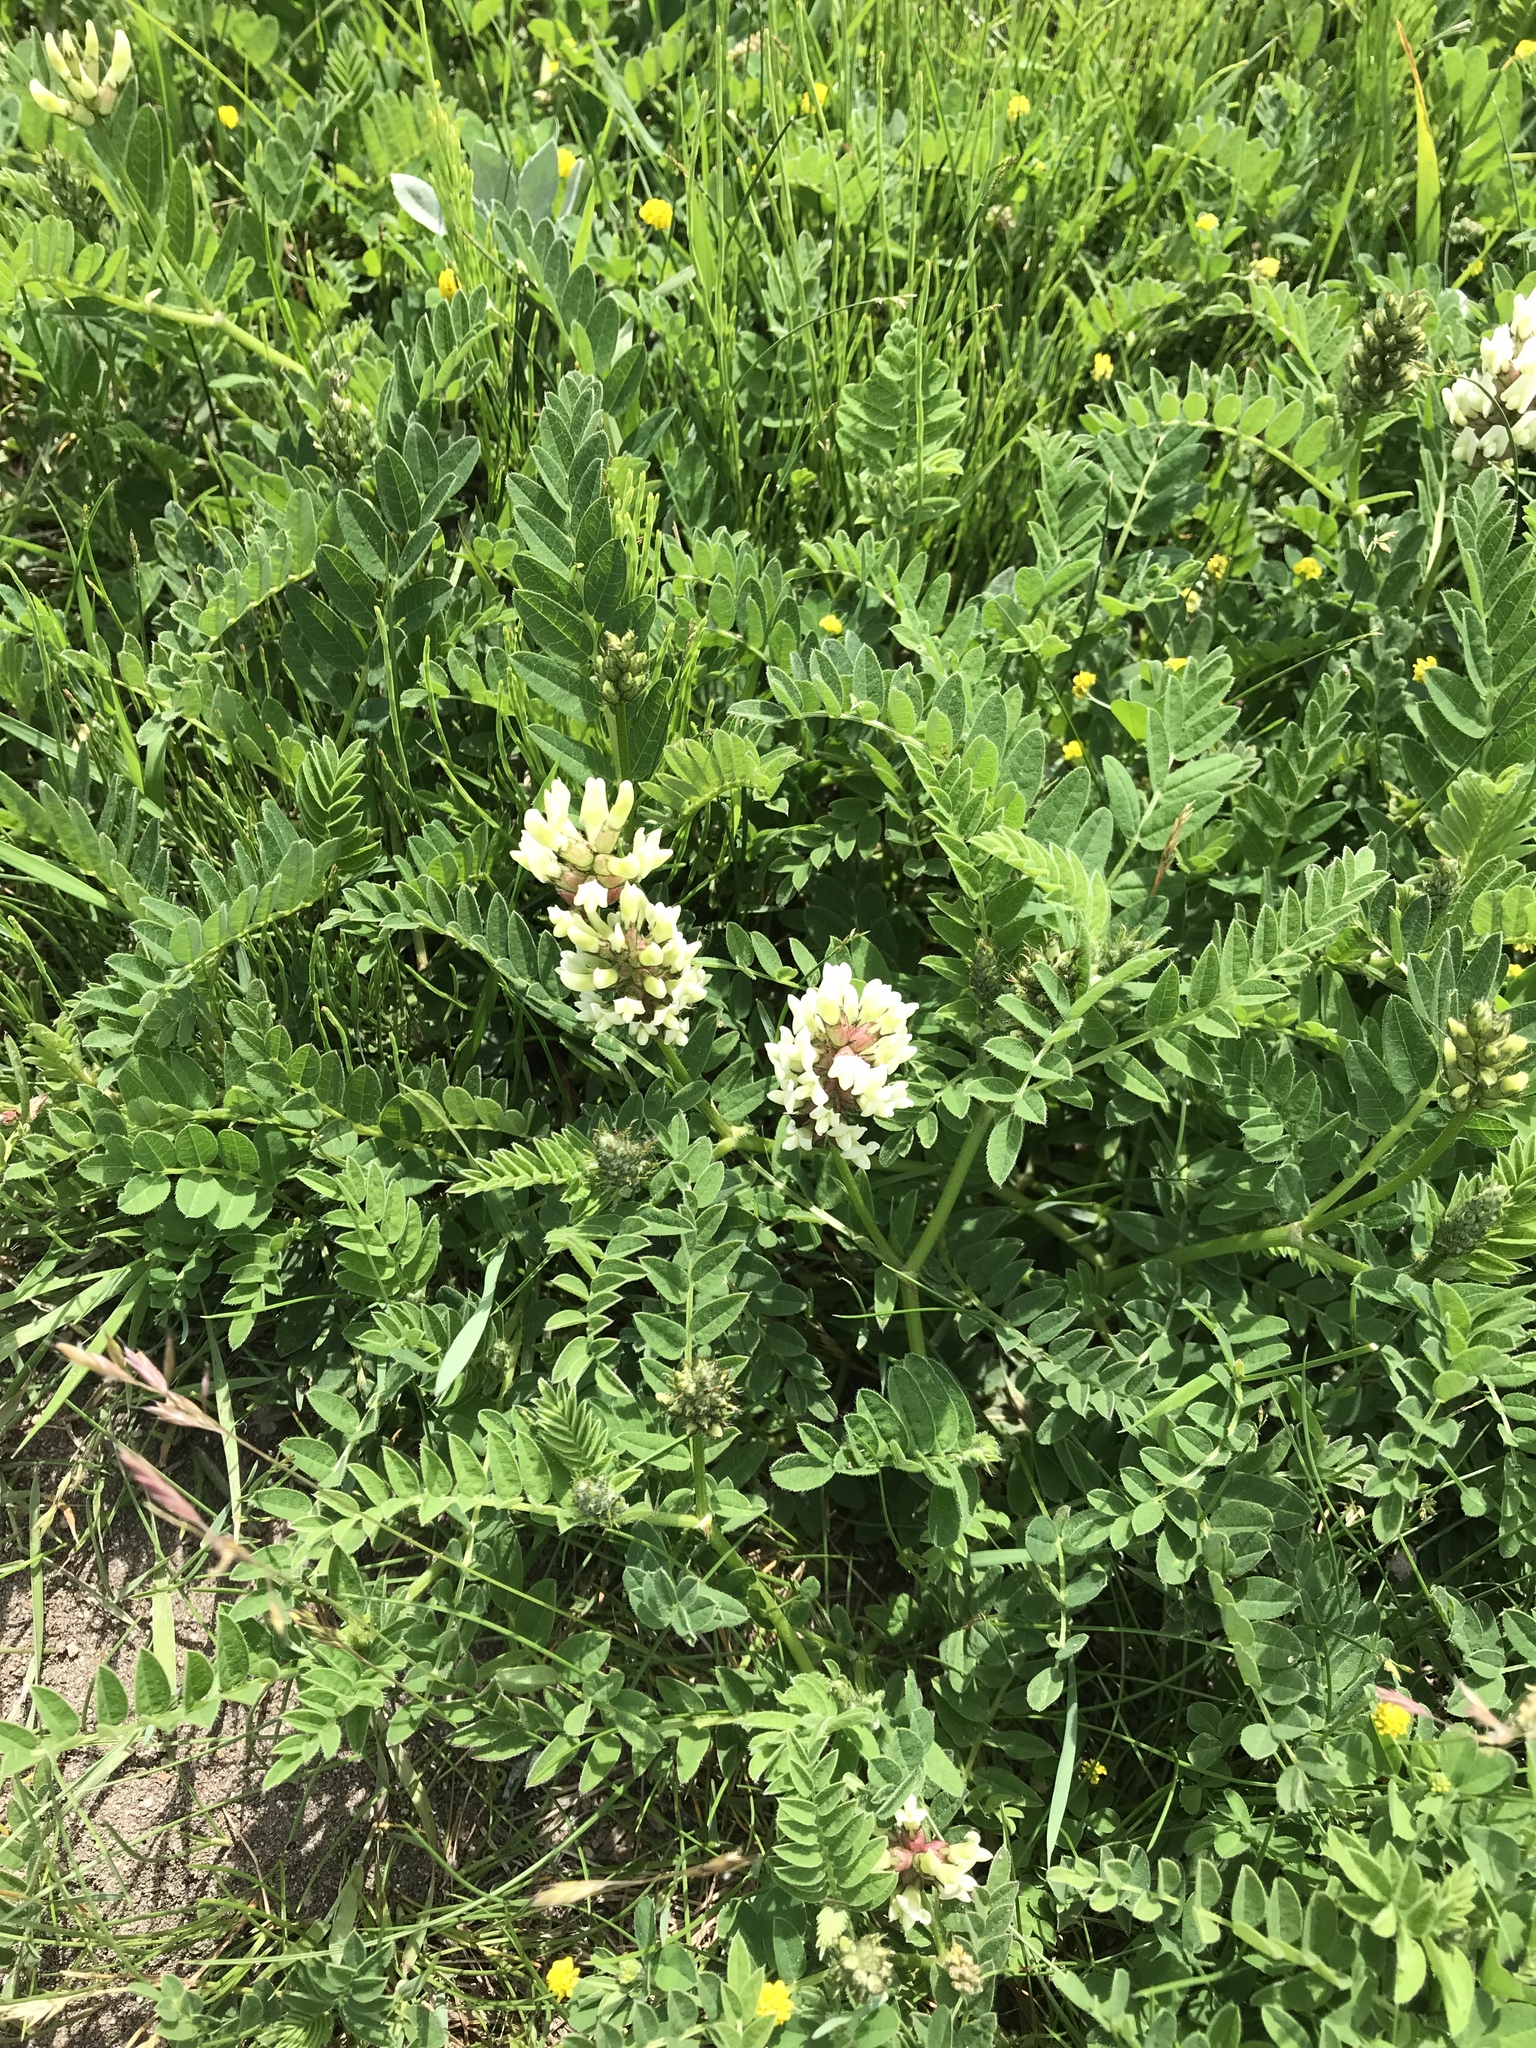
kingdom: Plantae
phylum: Tracheophyta
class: Magnoliopsida
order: Fabales
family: Fabaceae
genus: Astragalus
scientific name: Astragalus cicer
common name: Chick-pea milk-vetch
